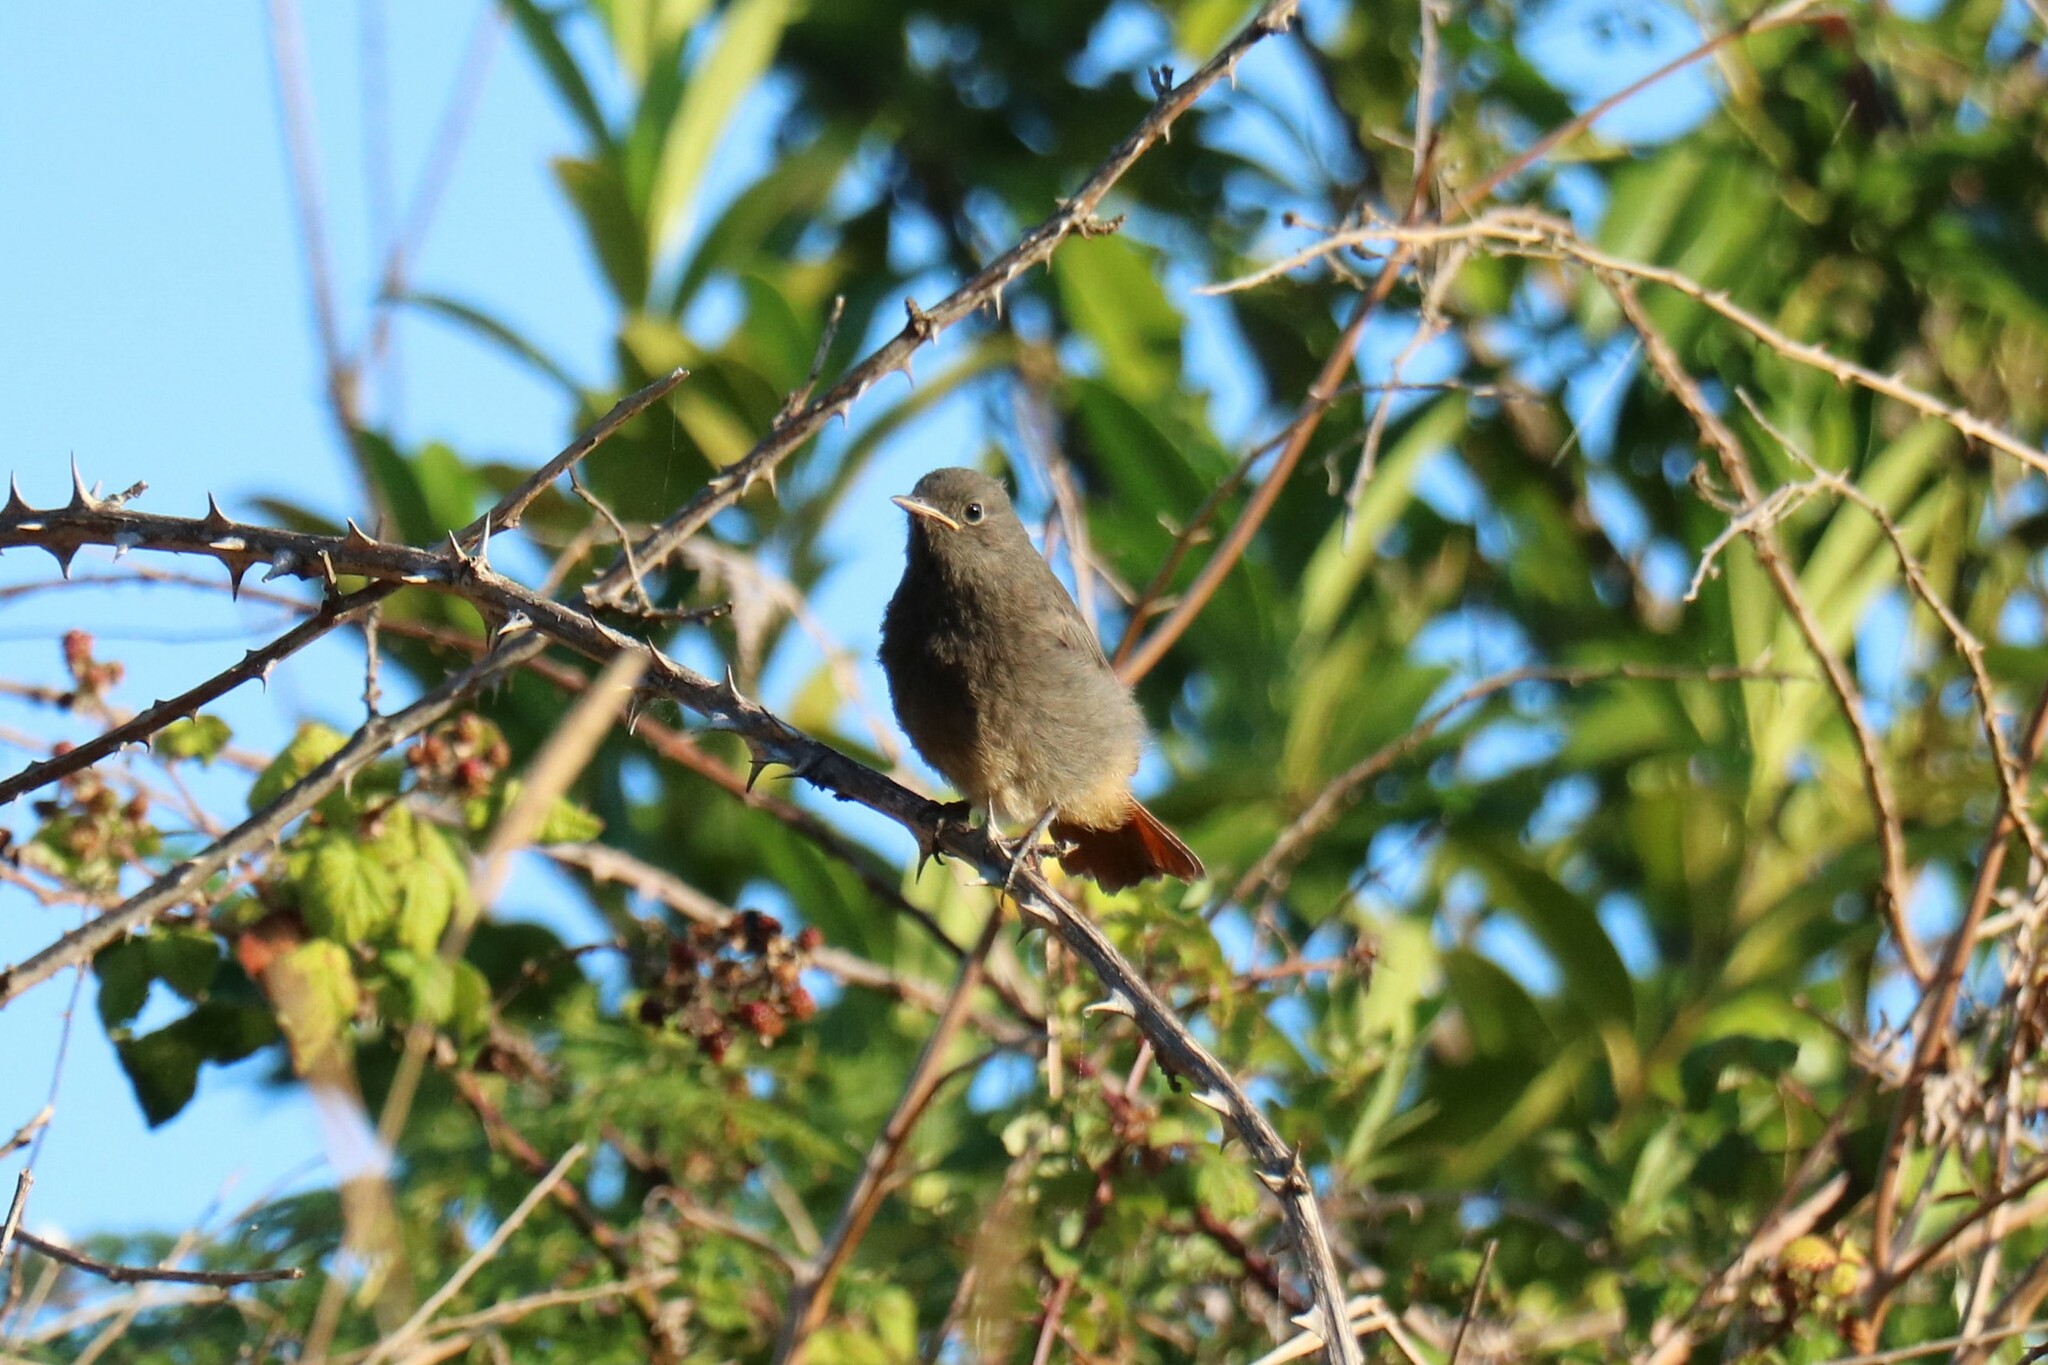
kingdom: Animalia
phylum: Chordata
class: Aves
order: Passeriformes
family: Muscicapidae
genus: Phoenicurus
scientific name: Phoenicurus ochruros
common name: Black redstart
